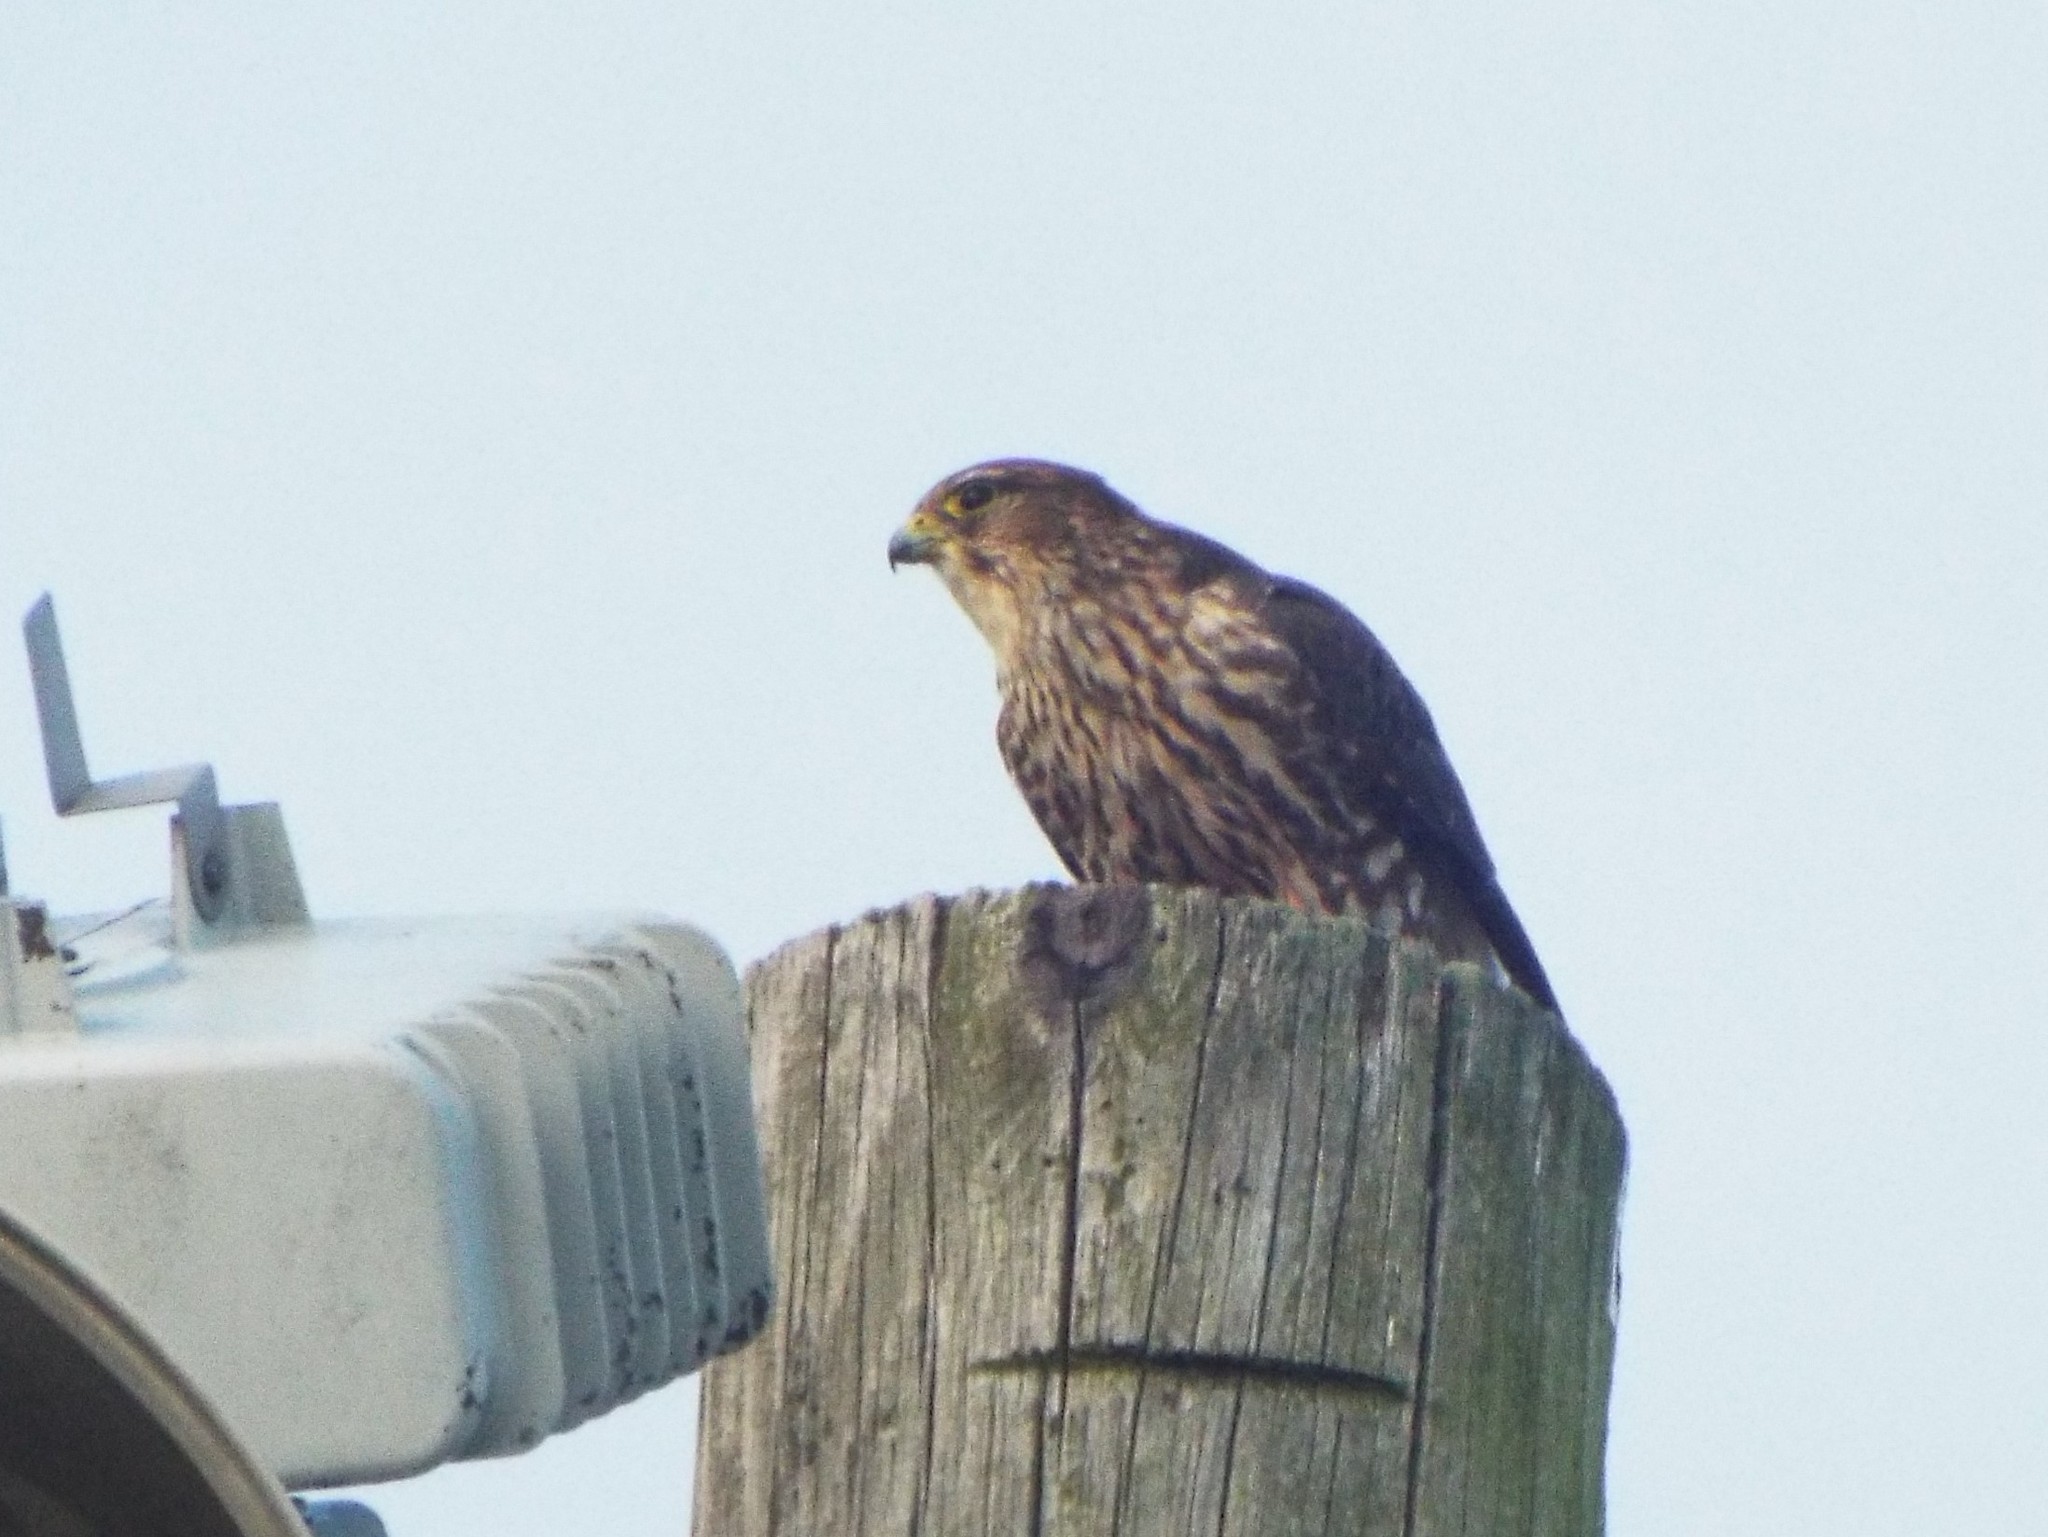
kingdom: Animalia
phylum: Chordata
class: Aves
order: Falconiformes
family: Falconidae
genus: Falco
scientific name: Falco columbarius
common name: Merlin
